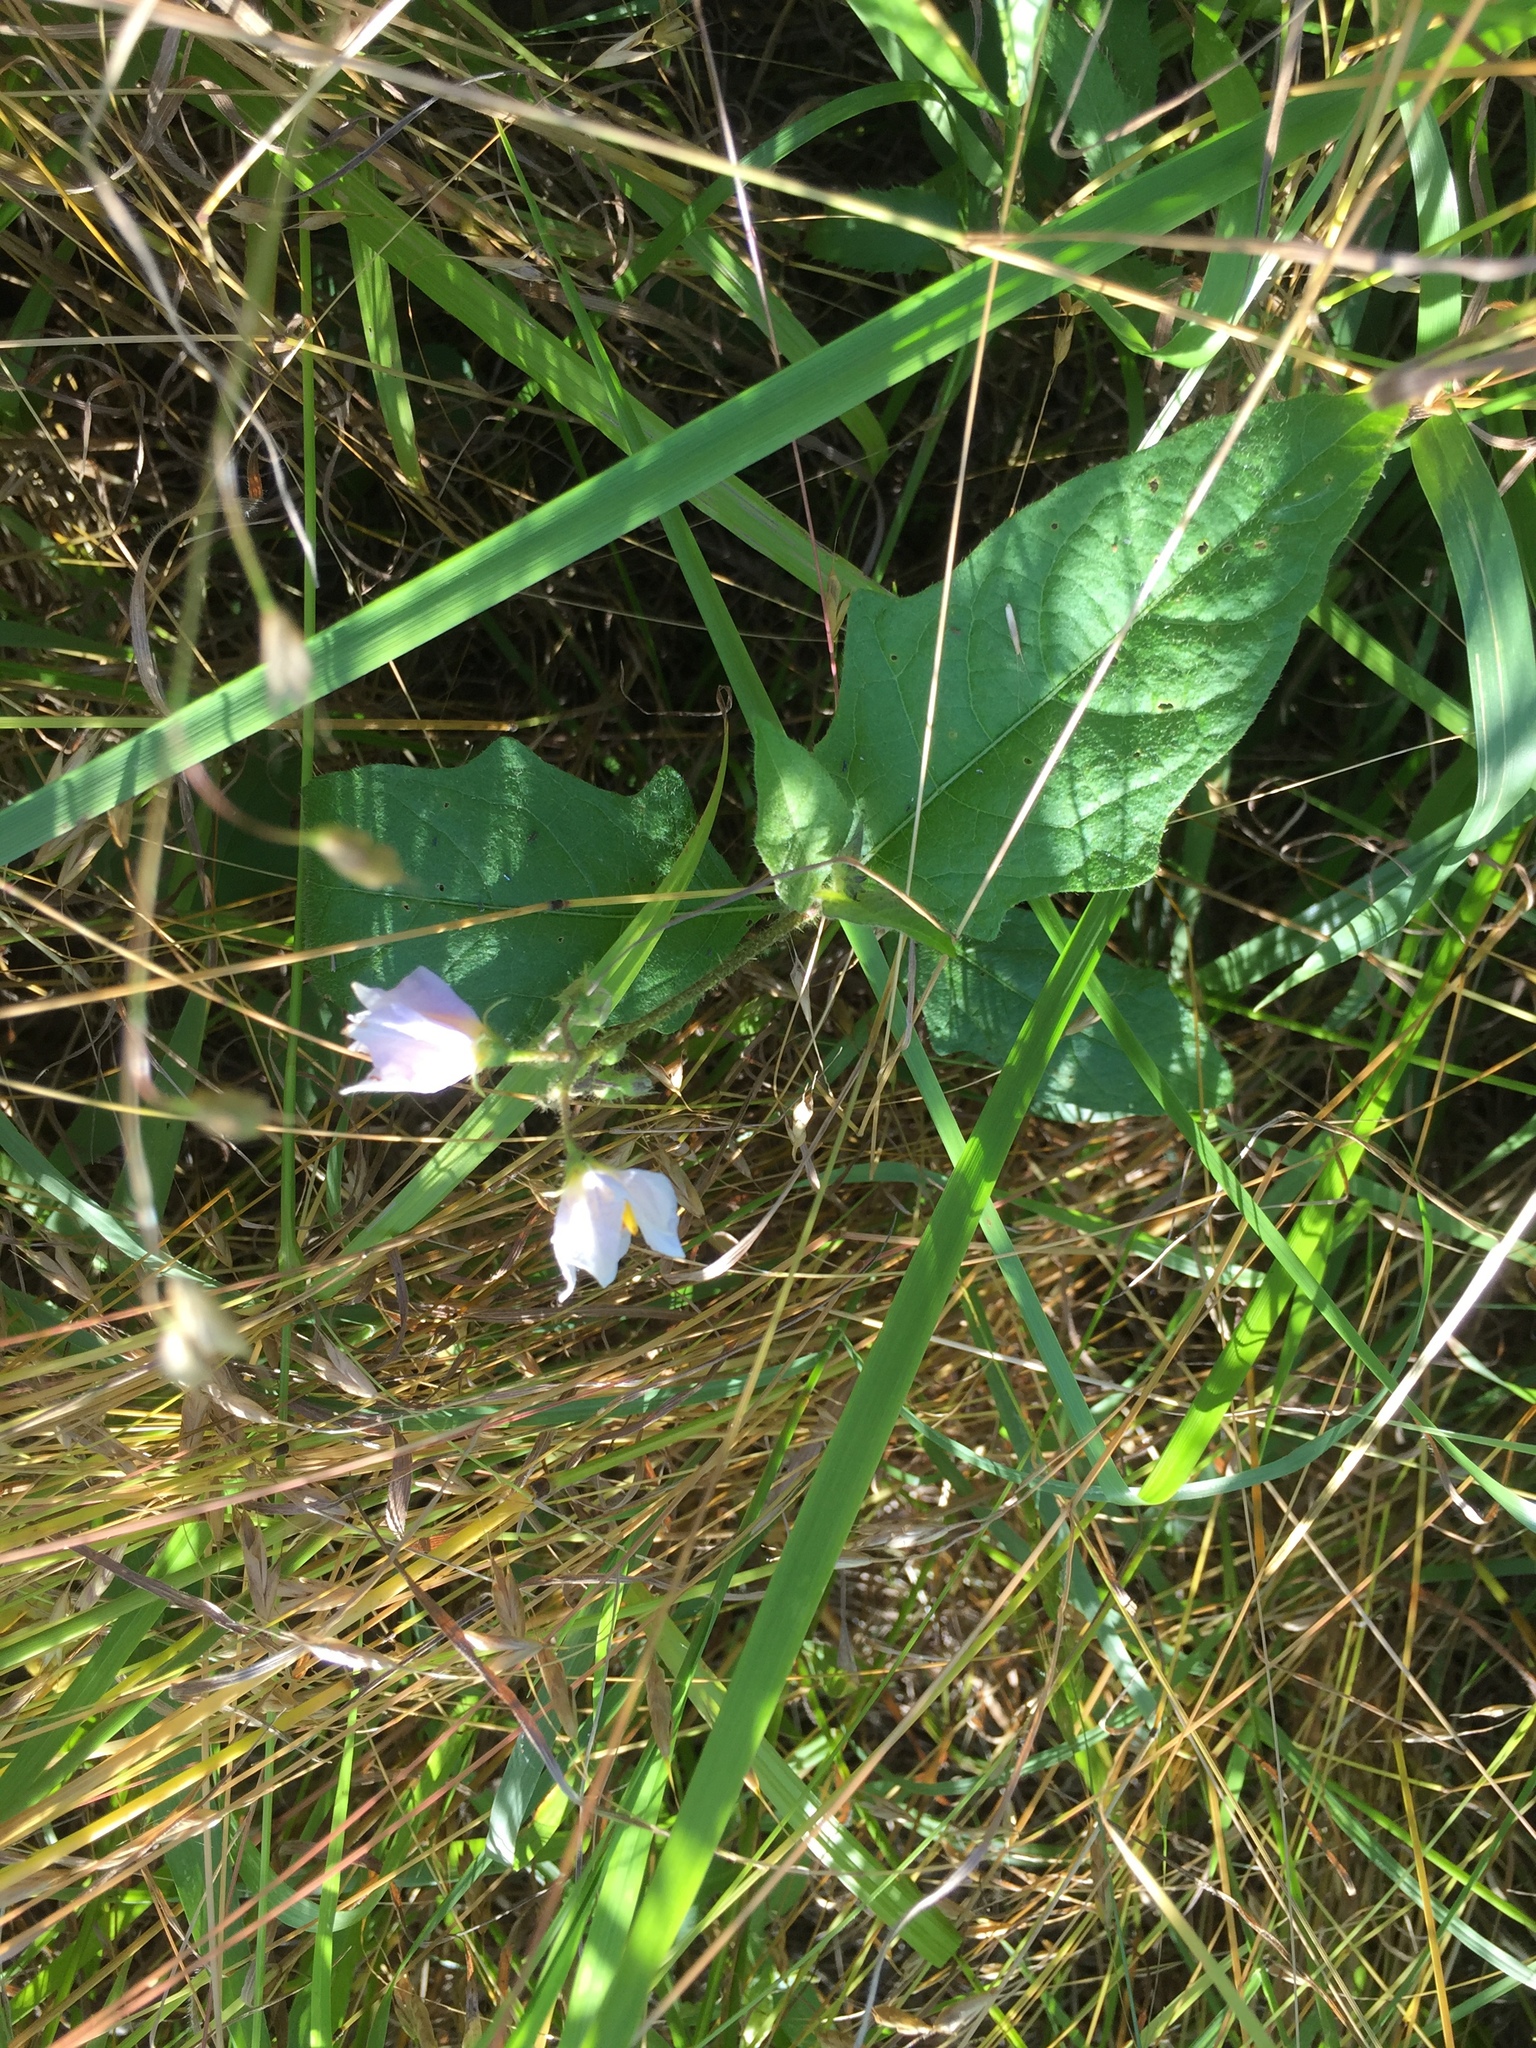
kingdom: Plantae
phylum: Tracheophyta
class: Magnoliopsida
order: Solanales
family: Solanaceae
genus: Solanum
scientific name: Solanum carolinense
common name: Horse-nettle
